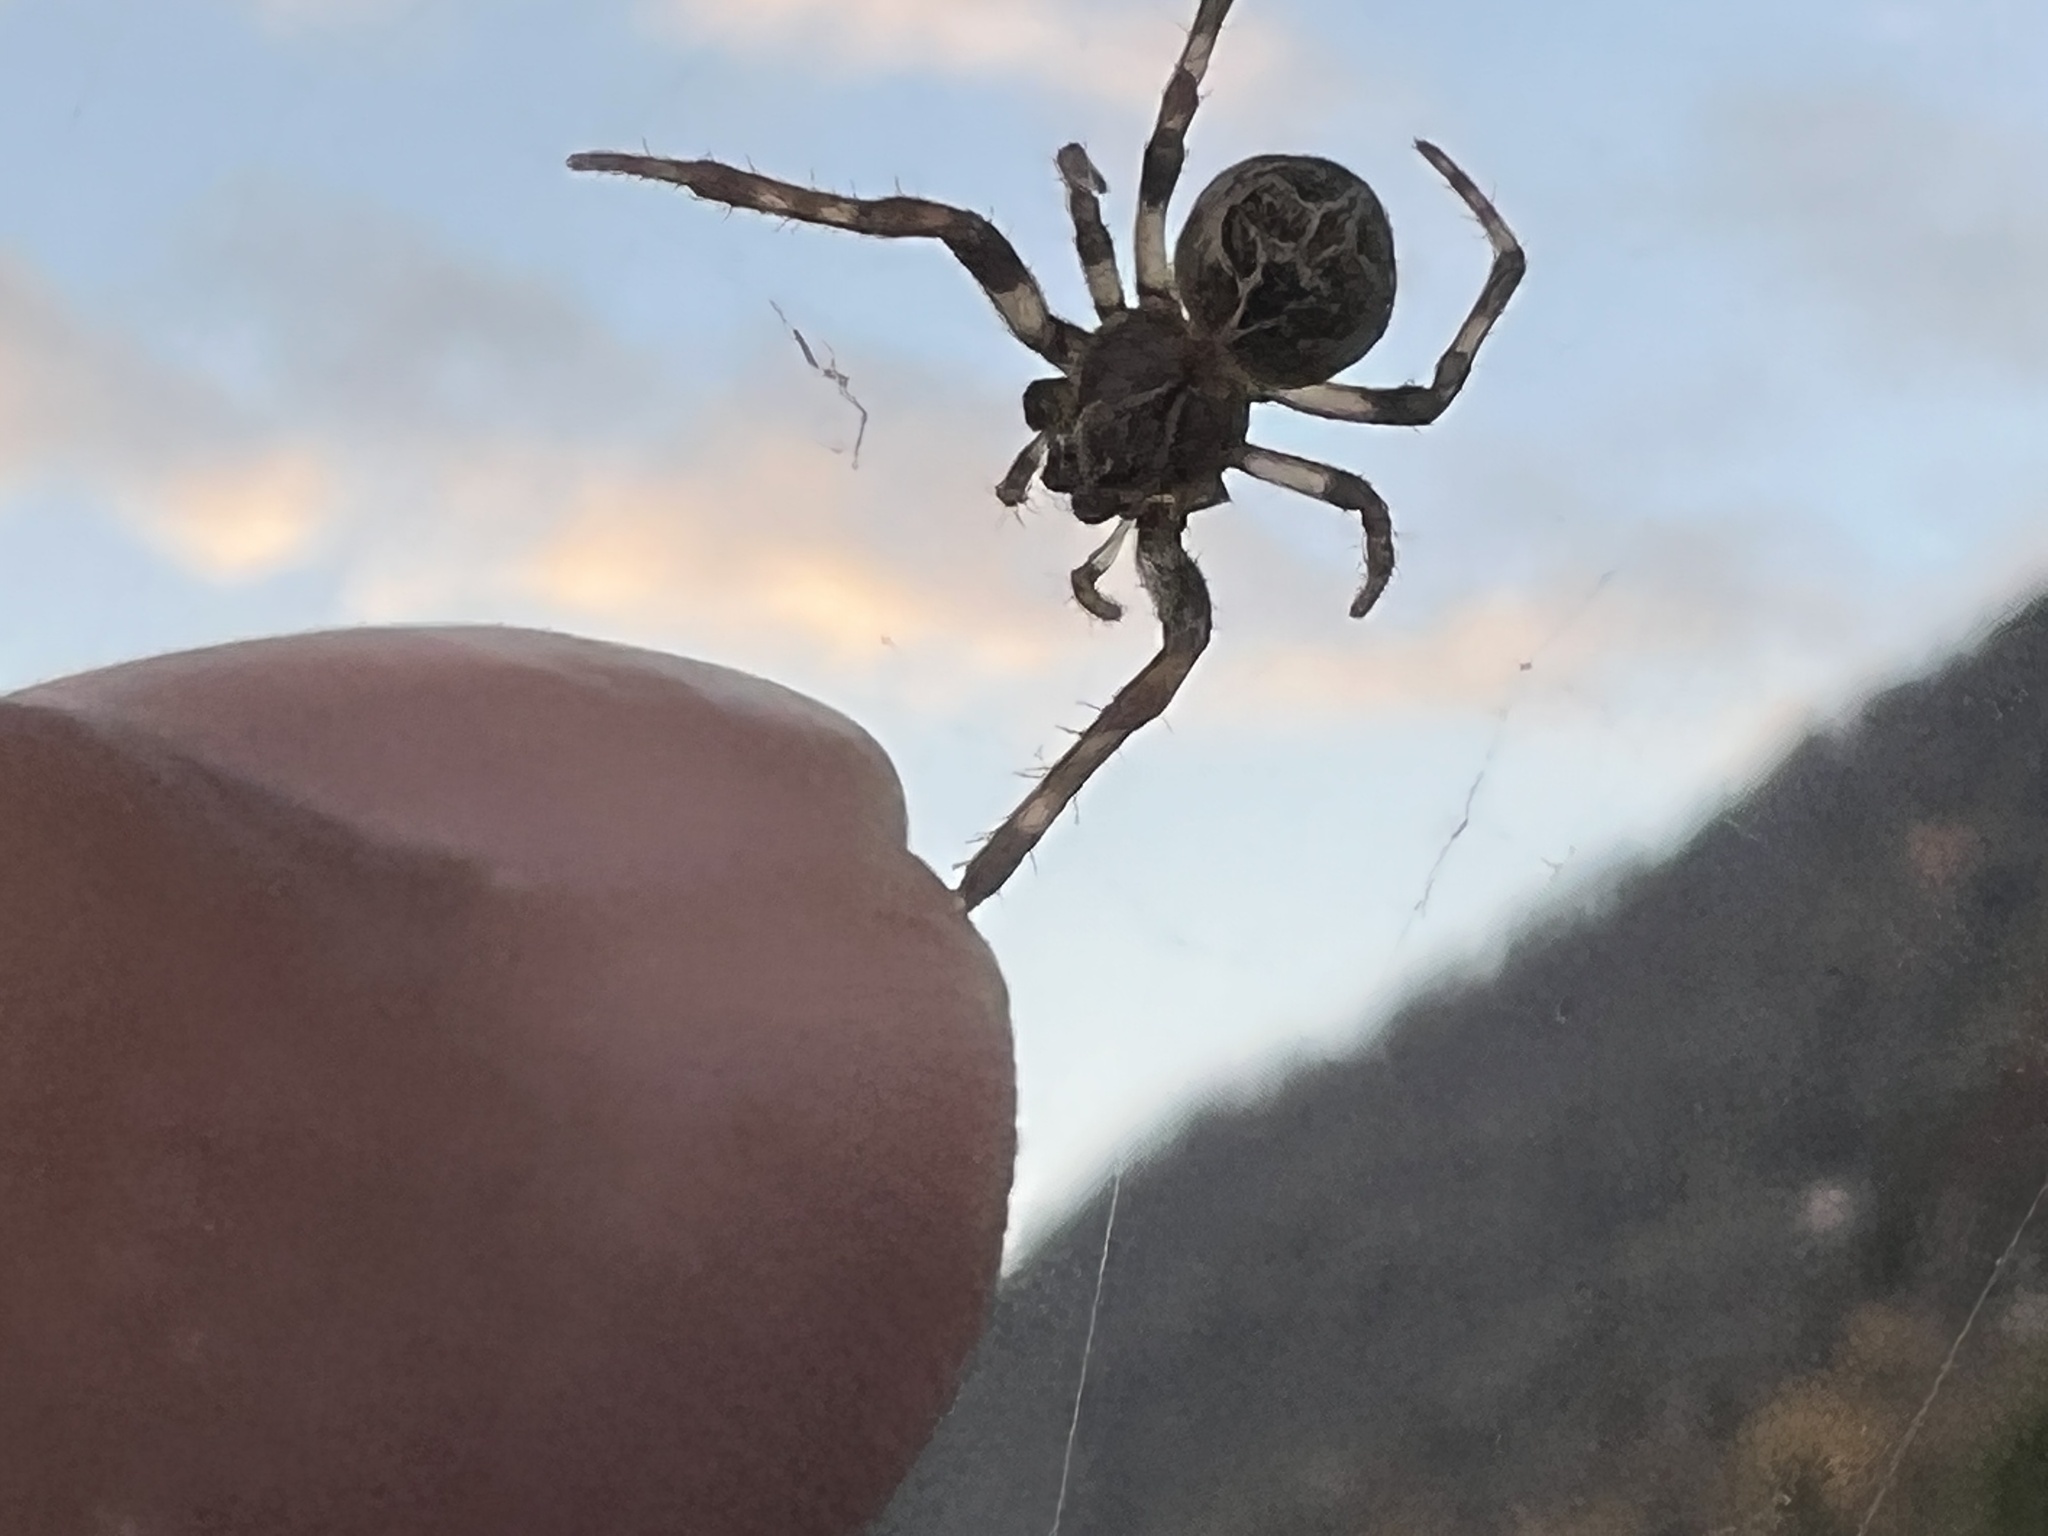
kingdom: Animalia
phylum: Arthropoda
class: Arachnida
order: Araneae
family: Araneidae
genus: Larinioides
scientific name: Larinioides sclopetarius
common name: Bridge orbweaver
